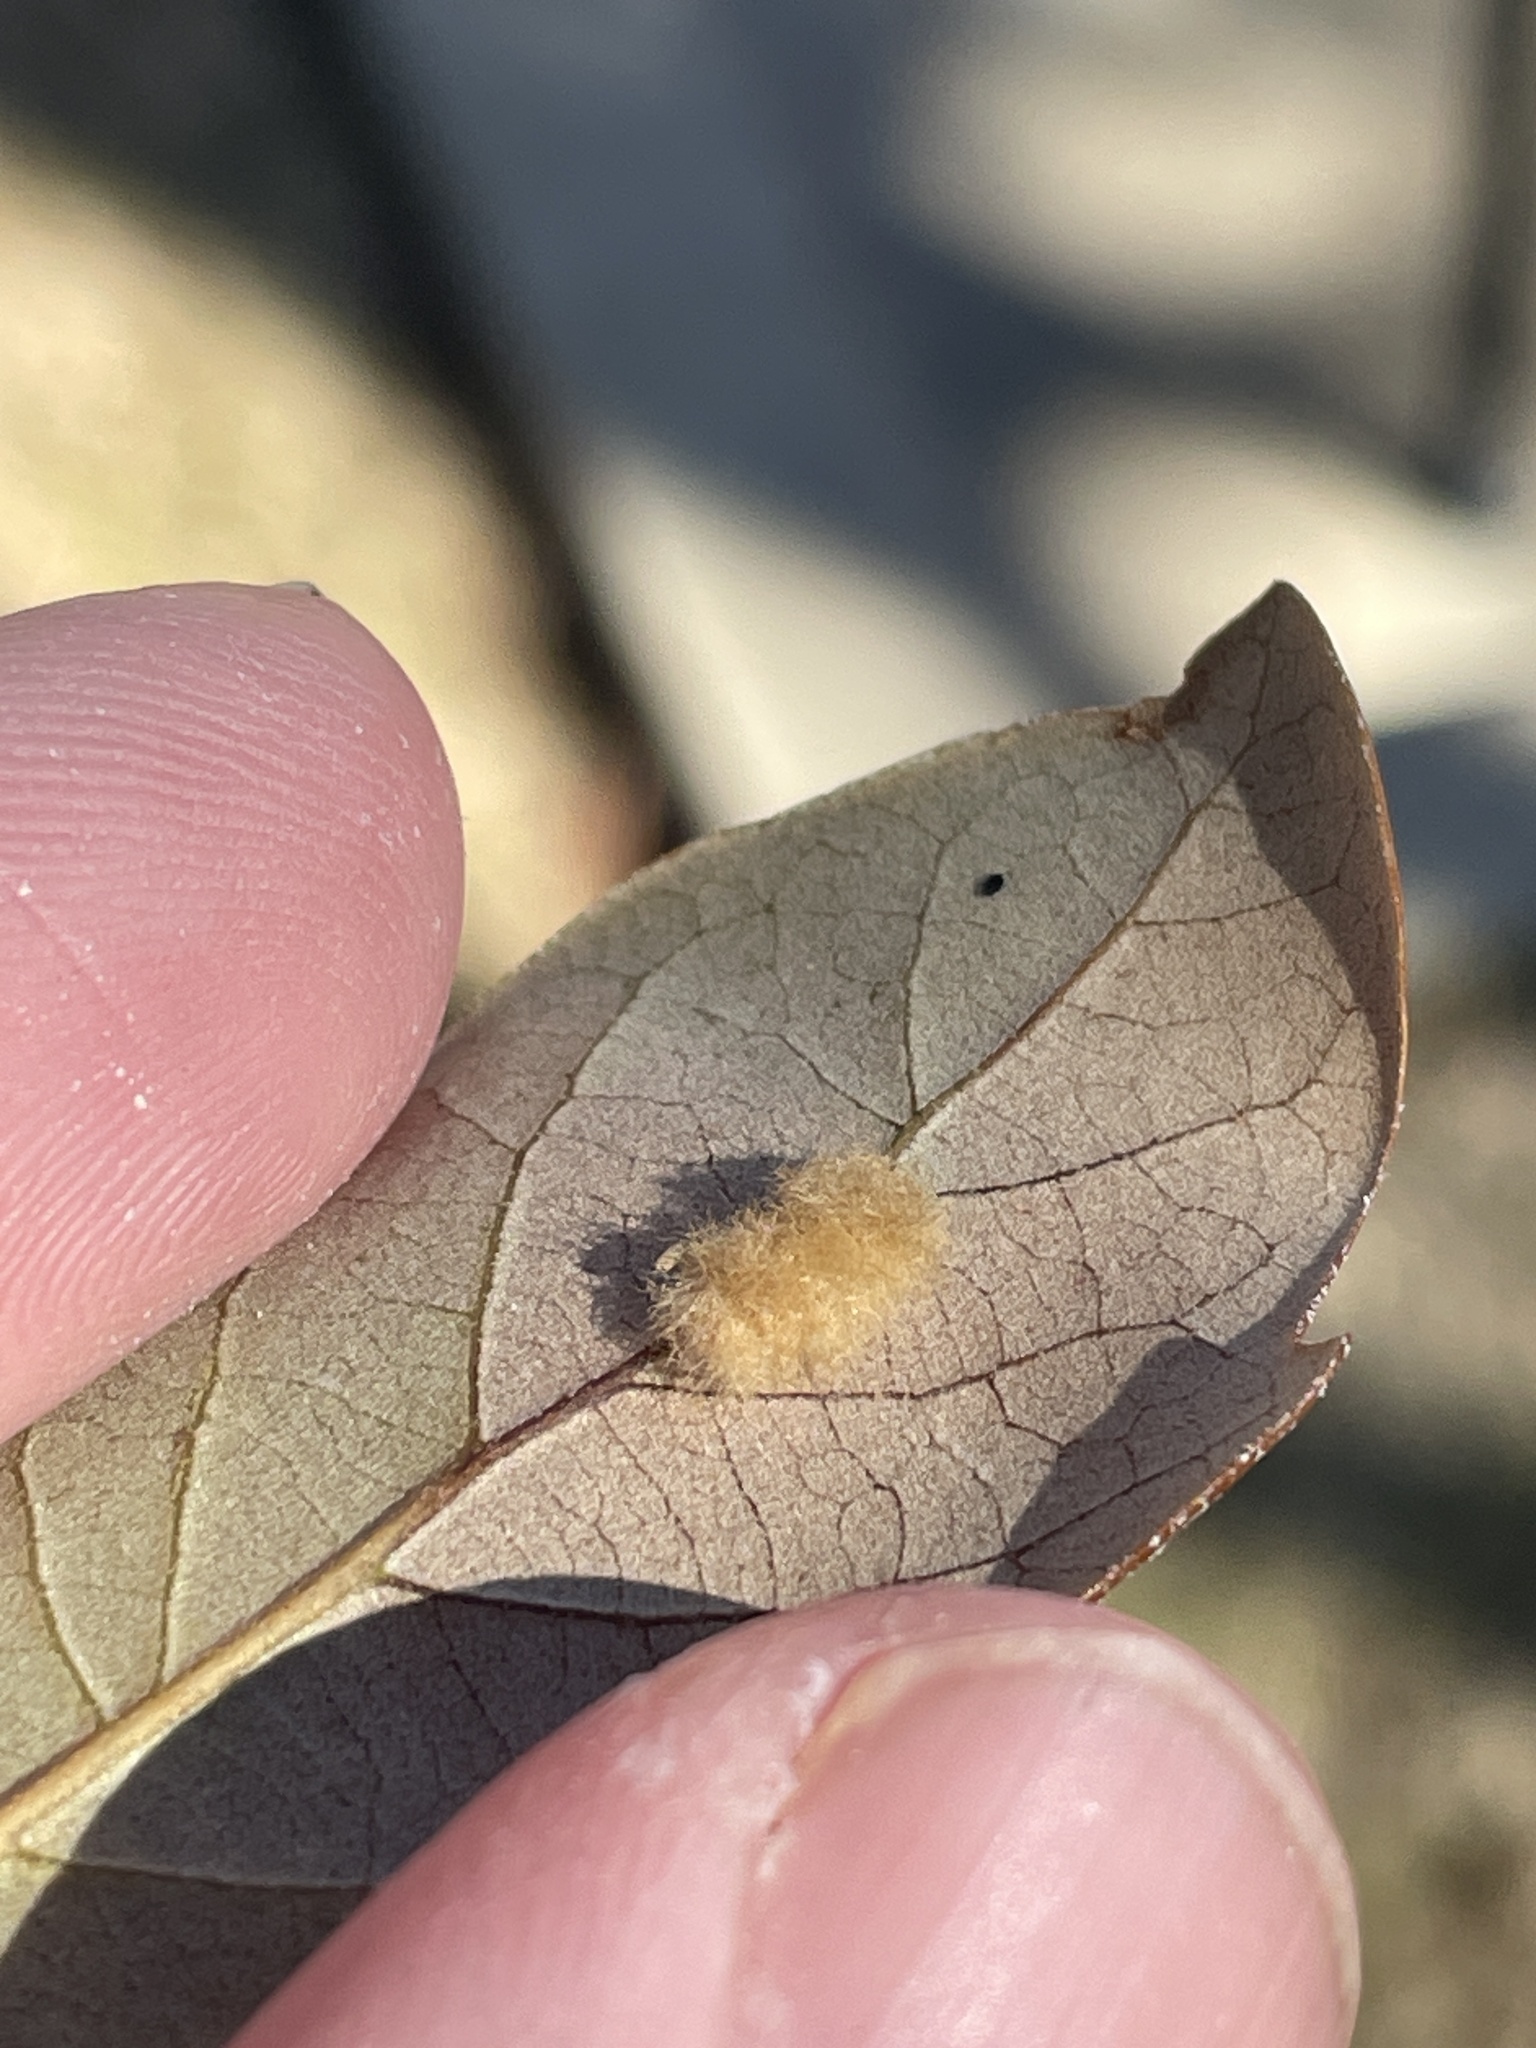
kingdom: Animalia
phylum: Arthropoda
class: Insecta
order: Hymenoptera
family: Cynipidae
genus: Andricus
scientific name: Andricus Druon quercuslanigerum
